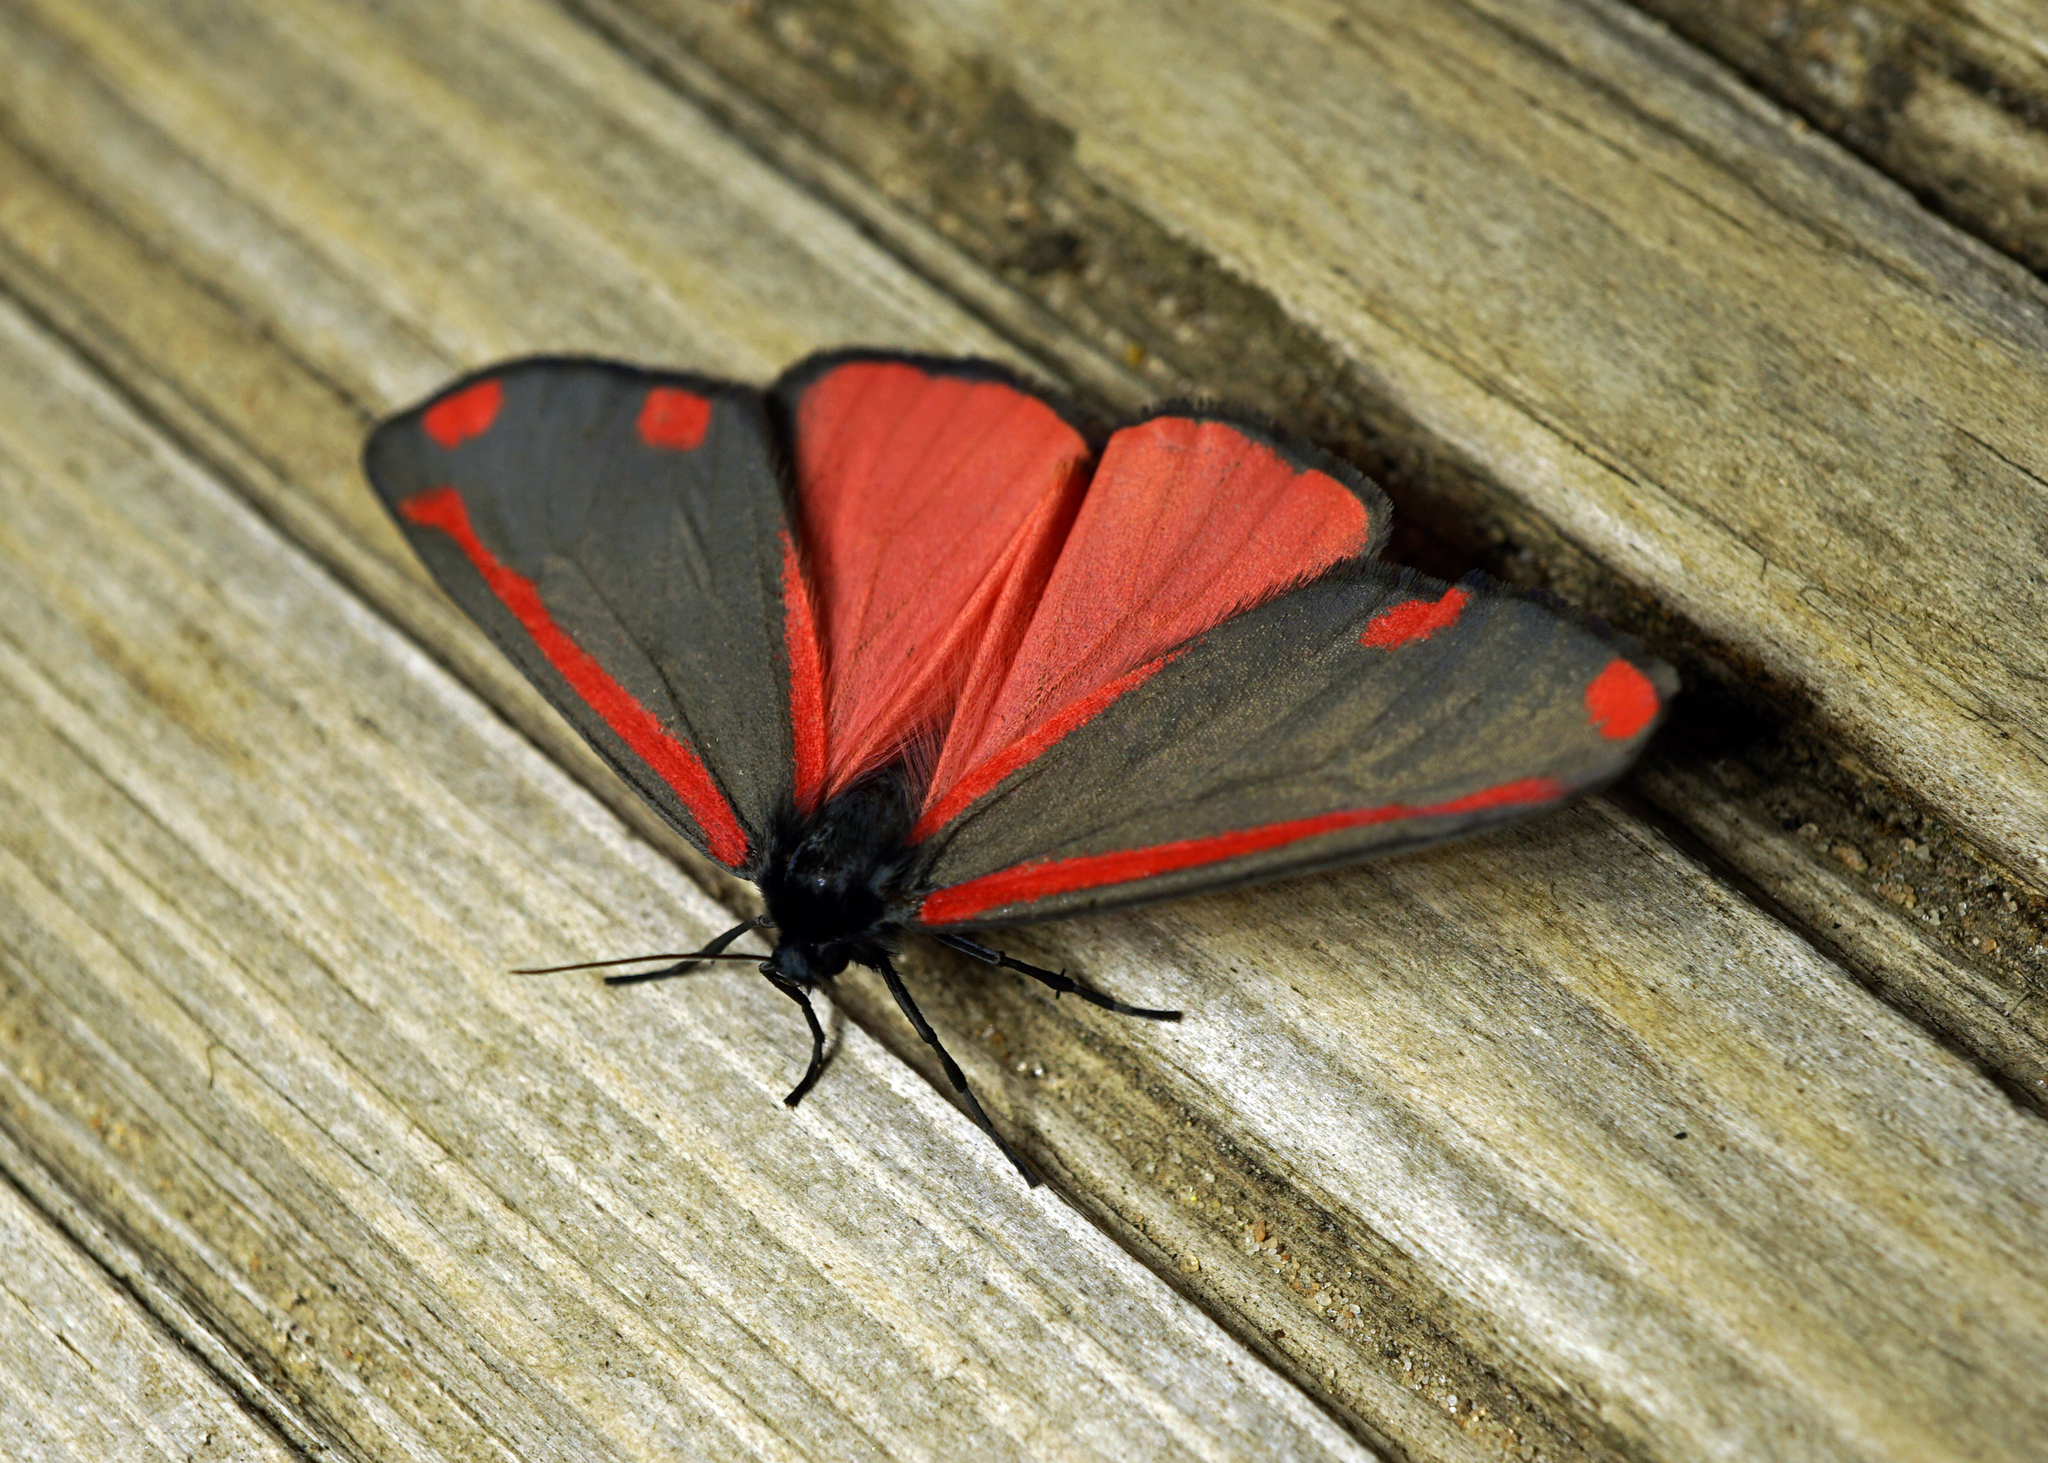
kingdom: Animalia
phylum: Arthropoda
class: Insecta
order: Lepidoptera
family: Erebidae
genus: Tyria
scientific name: Tyria jacobaeae
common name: Cinnabar
